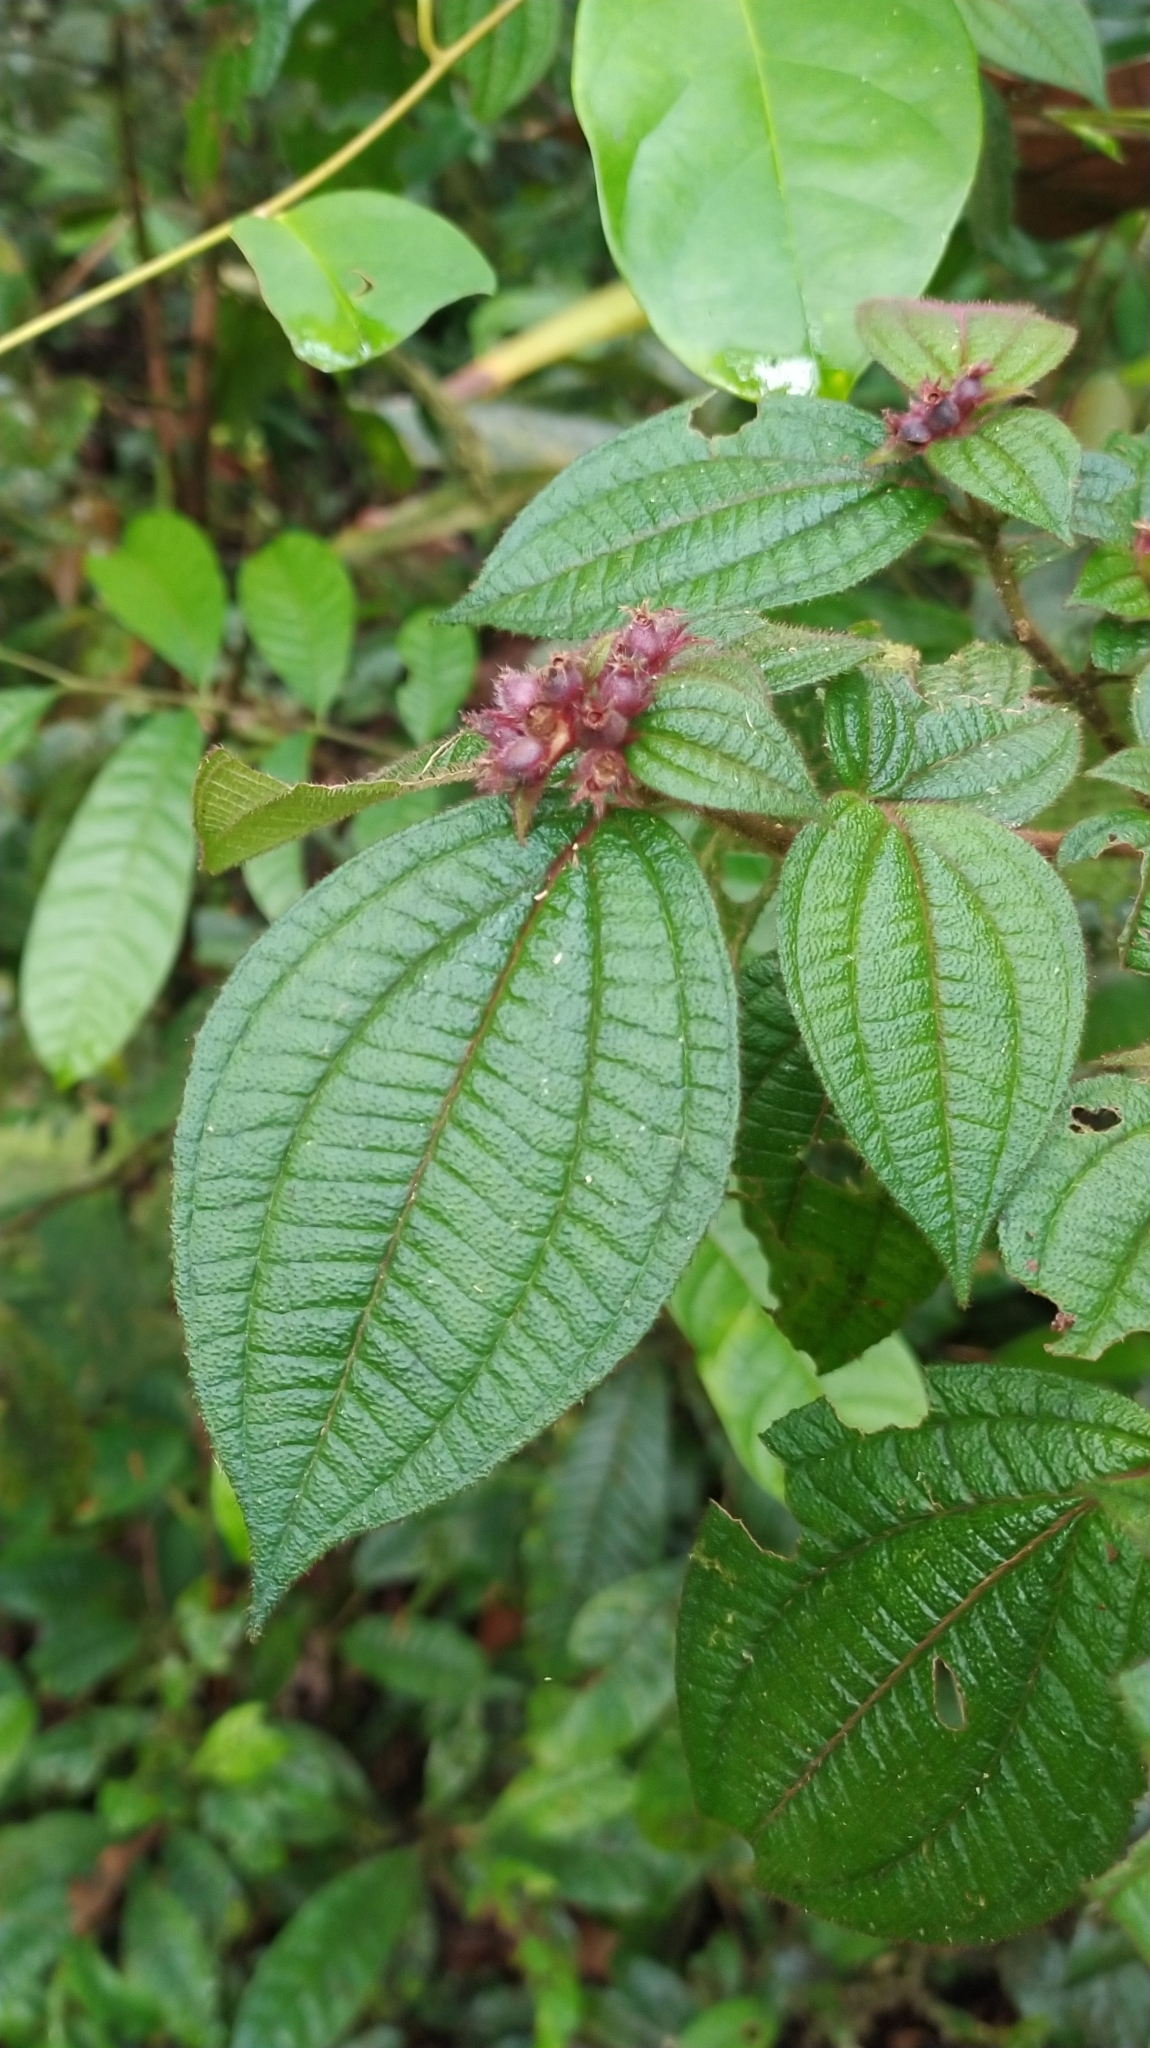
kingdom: Plantae
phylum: Tracheophyta
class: Magnoliopsida
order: Myrtales
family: Melastomataceae
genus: Miconia
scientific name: Miconia conglomerata
